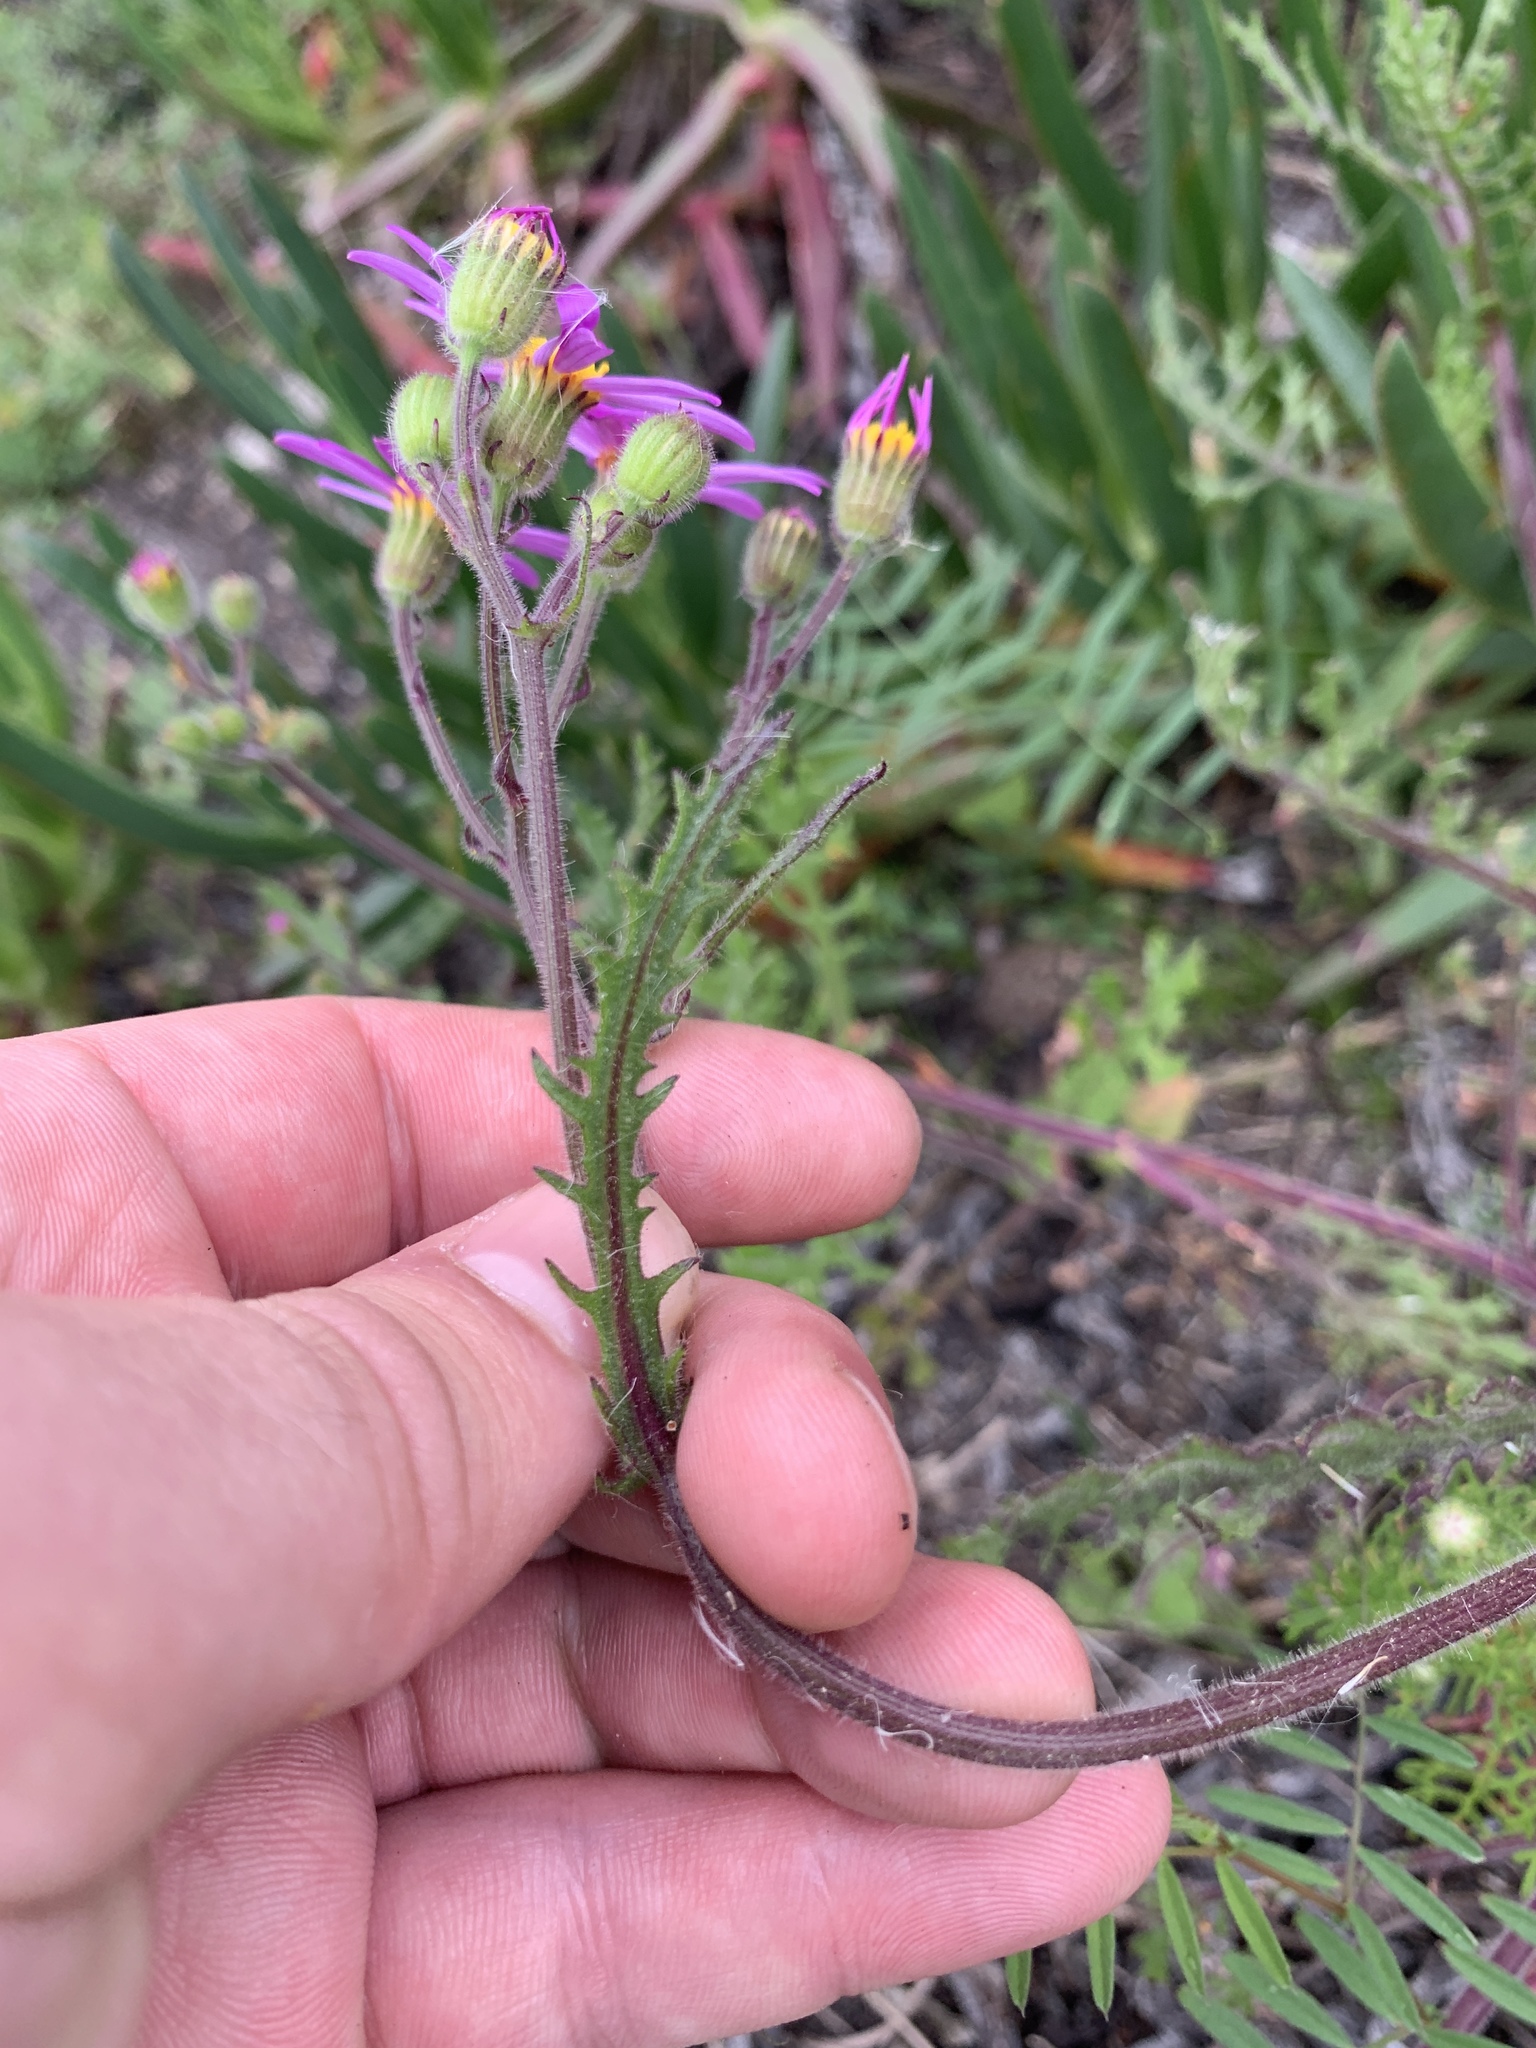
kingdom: Plantae
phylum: Tracheophyta
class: Magnoliopsida
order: Asterales
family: Asteraceae
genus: Senecio
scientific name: Senecio arenarius
